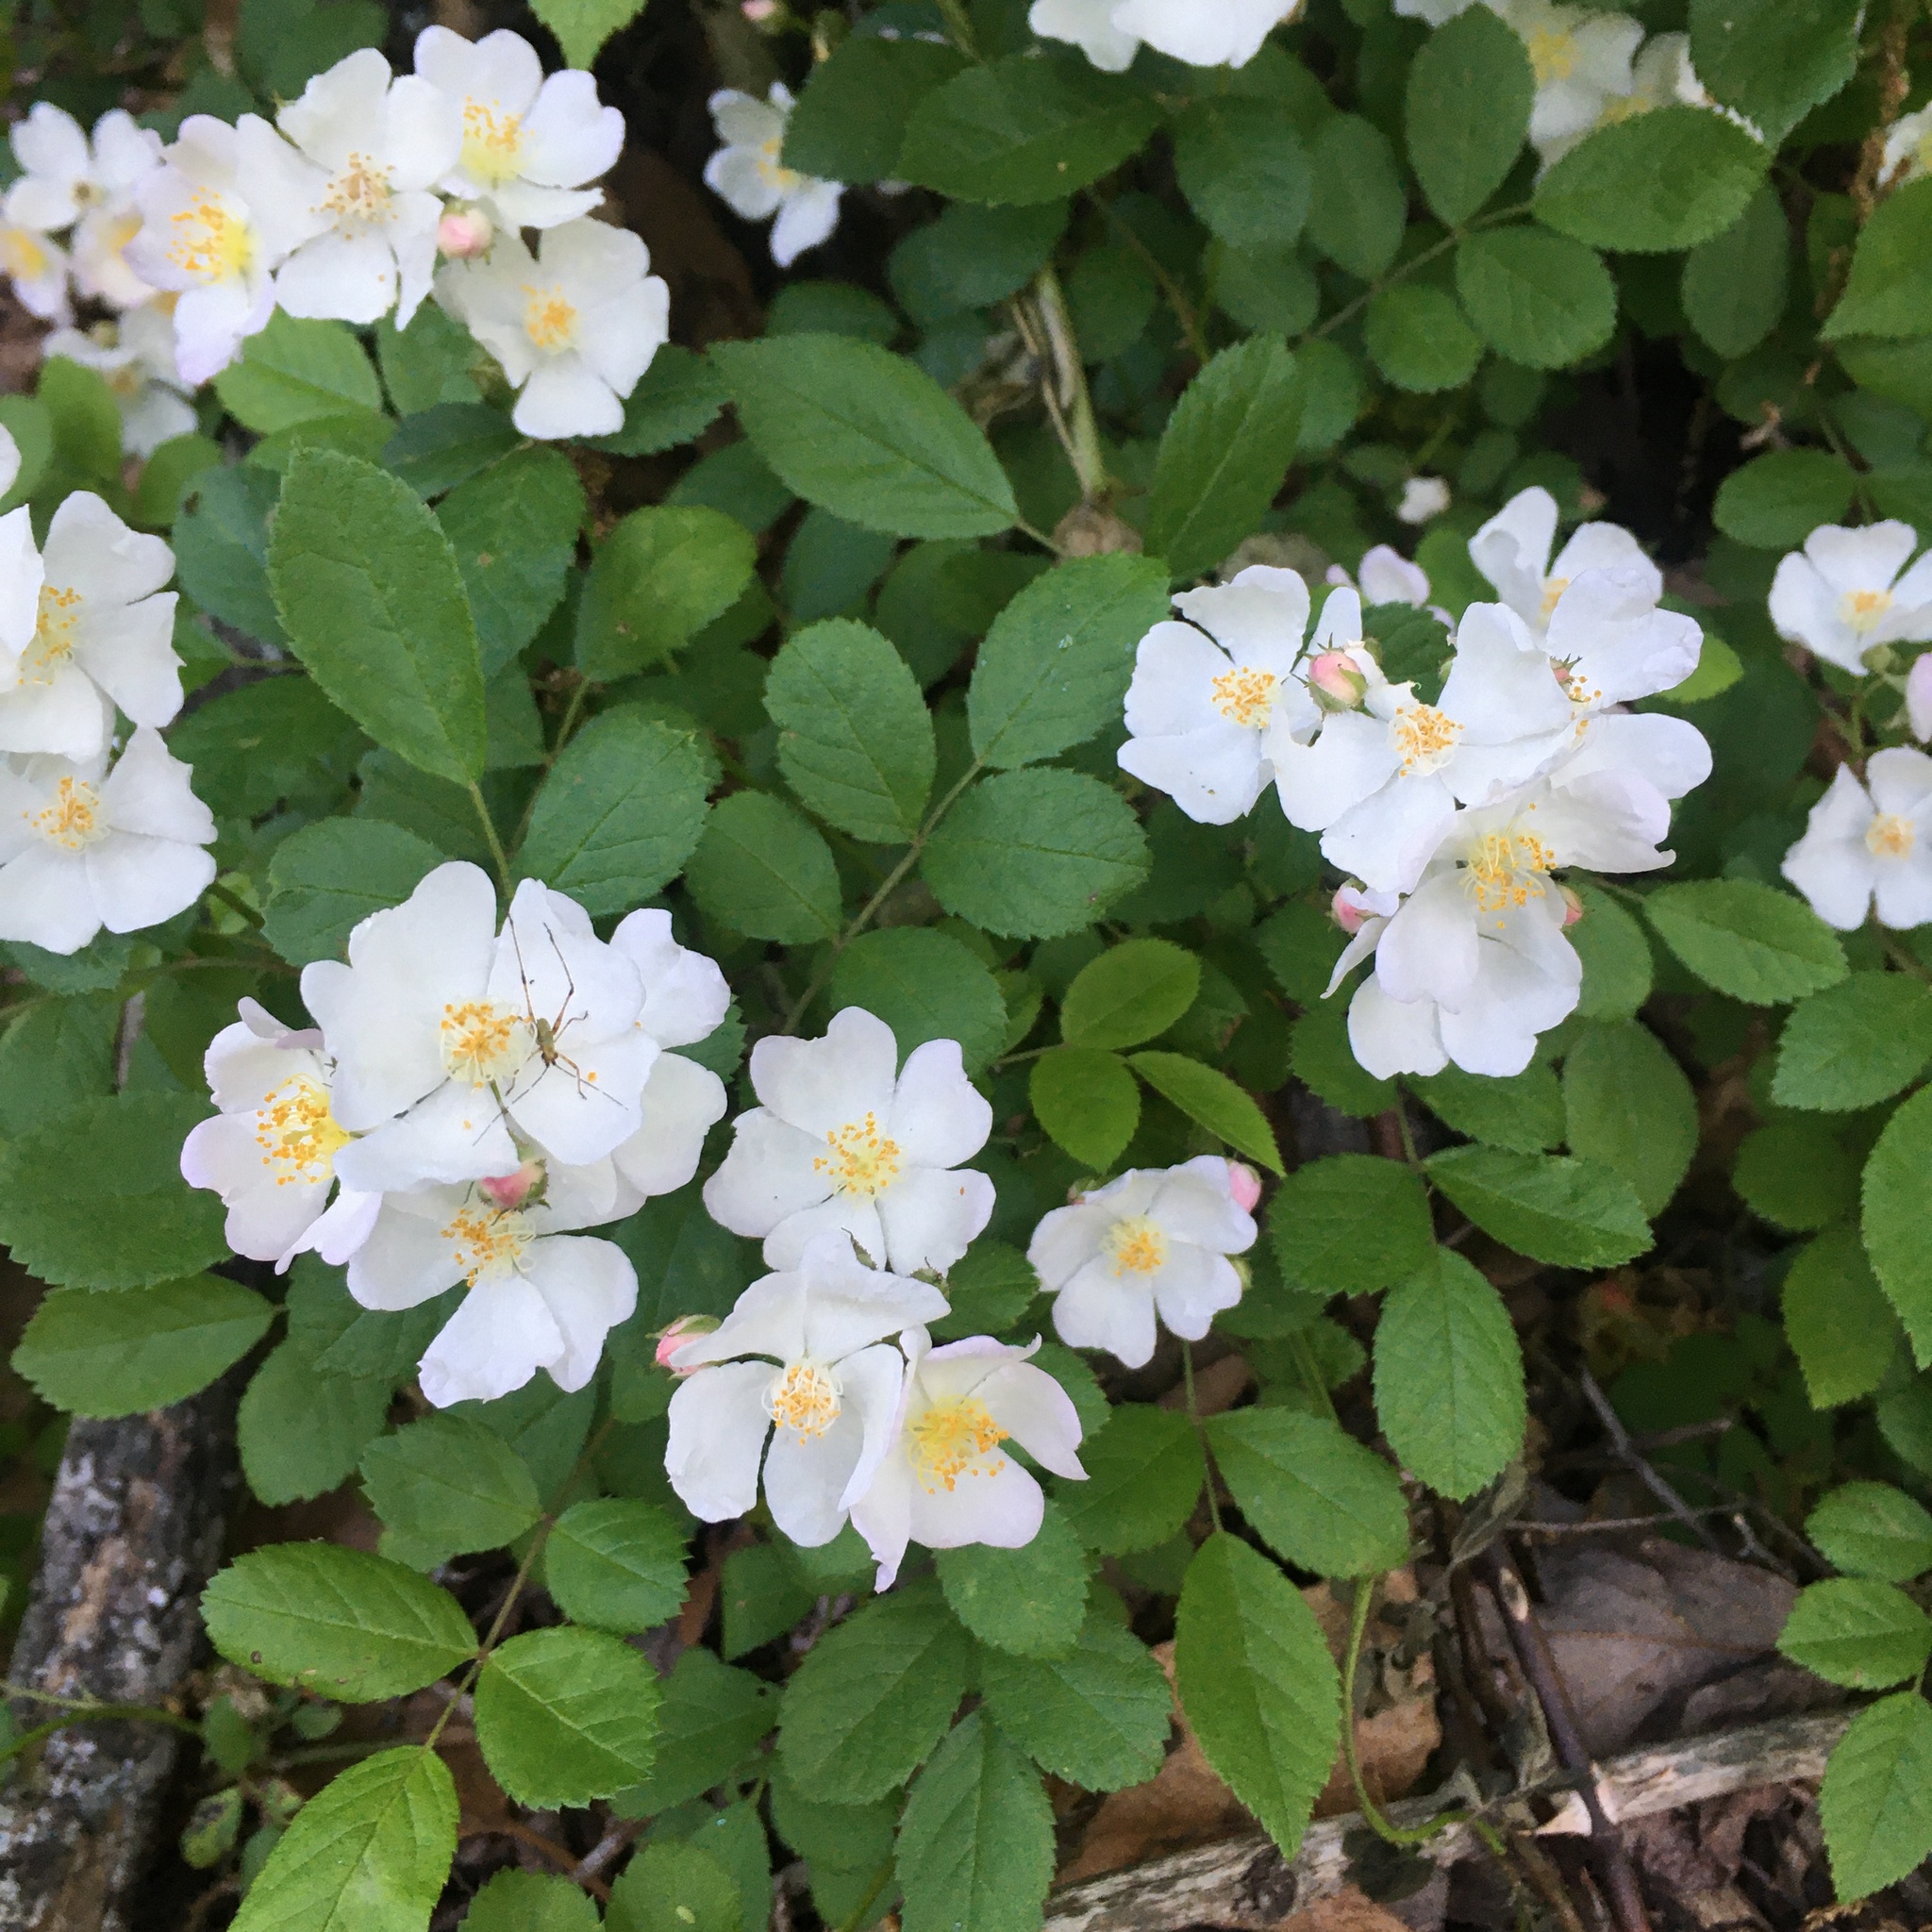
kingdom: Plantae
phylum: Tracheophyta
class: Magnoliopsida
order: Rosales
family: Rosaceae
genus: Rosa
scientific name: Rosa multiflora
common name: Multiflora rose
